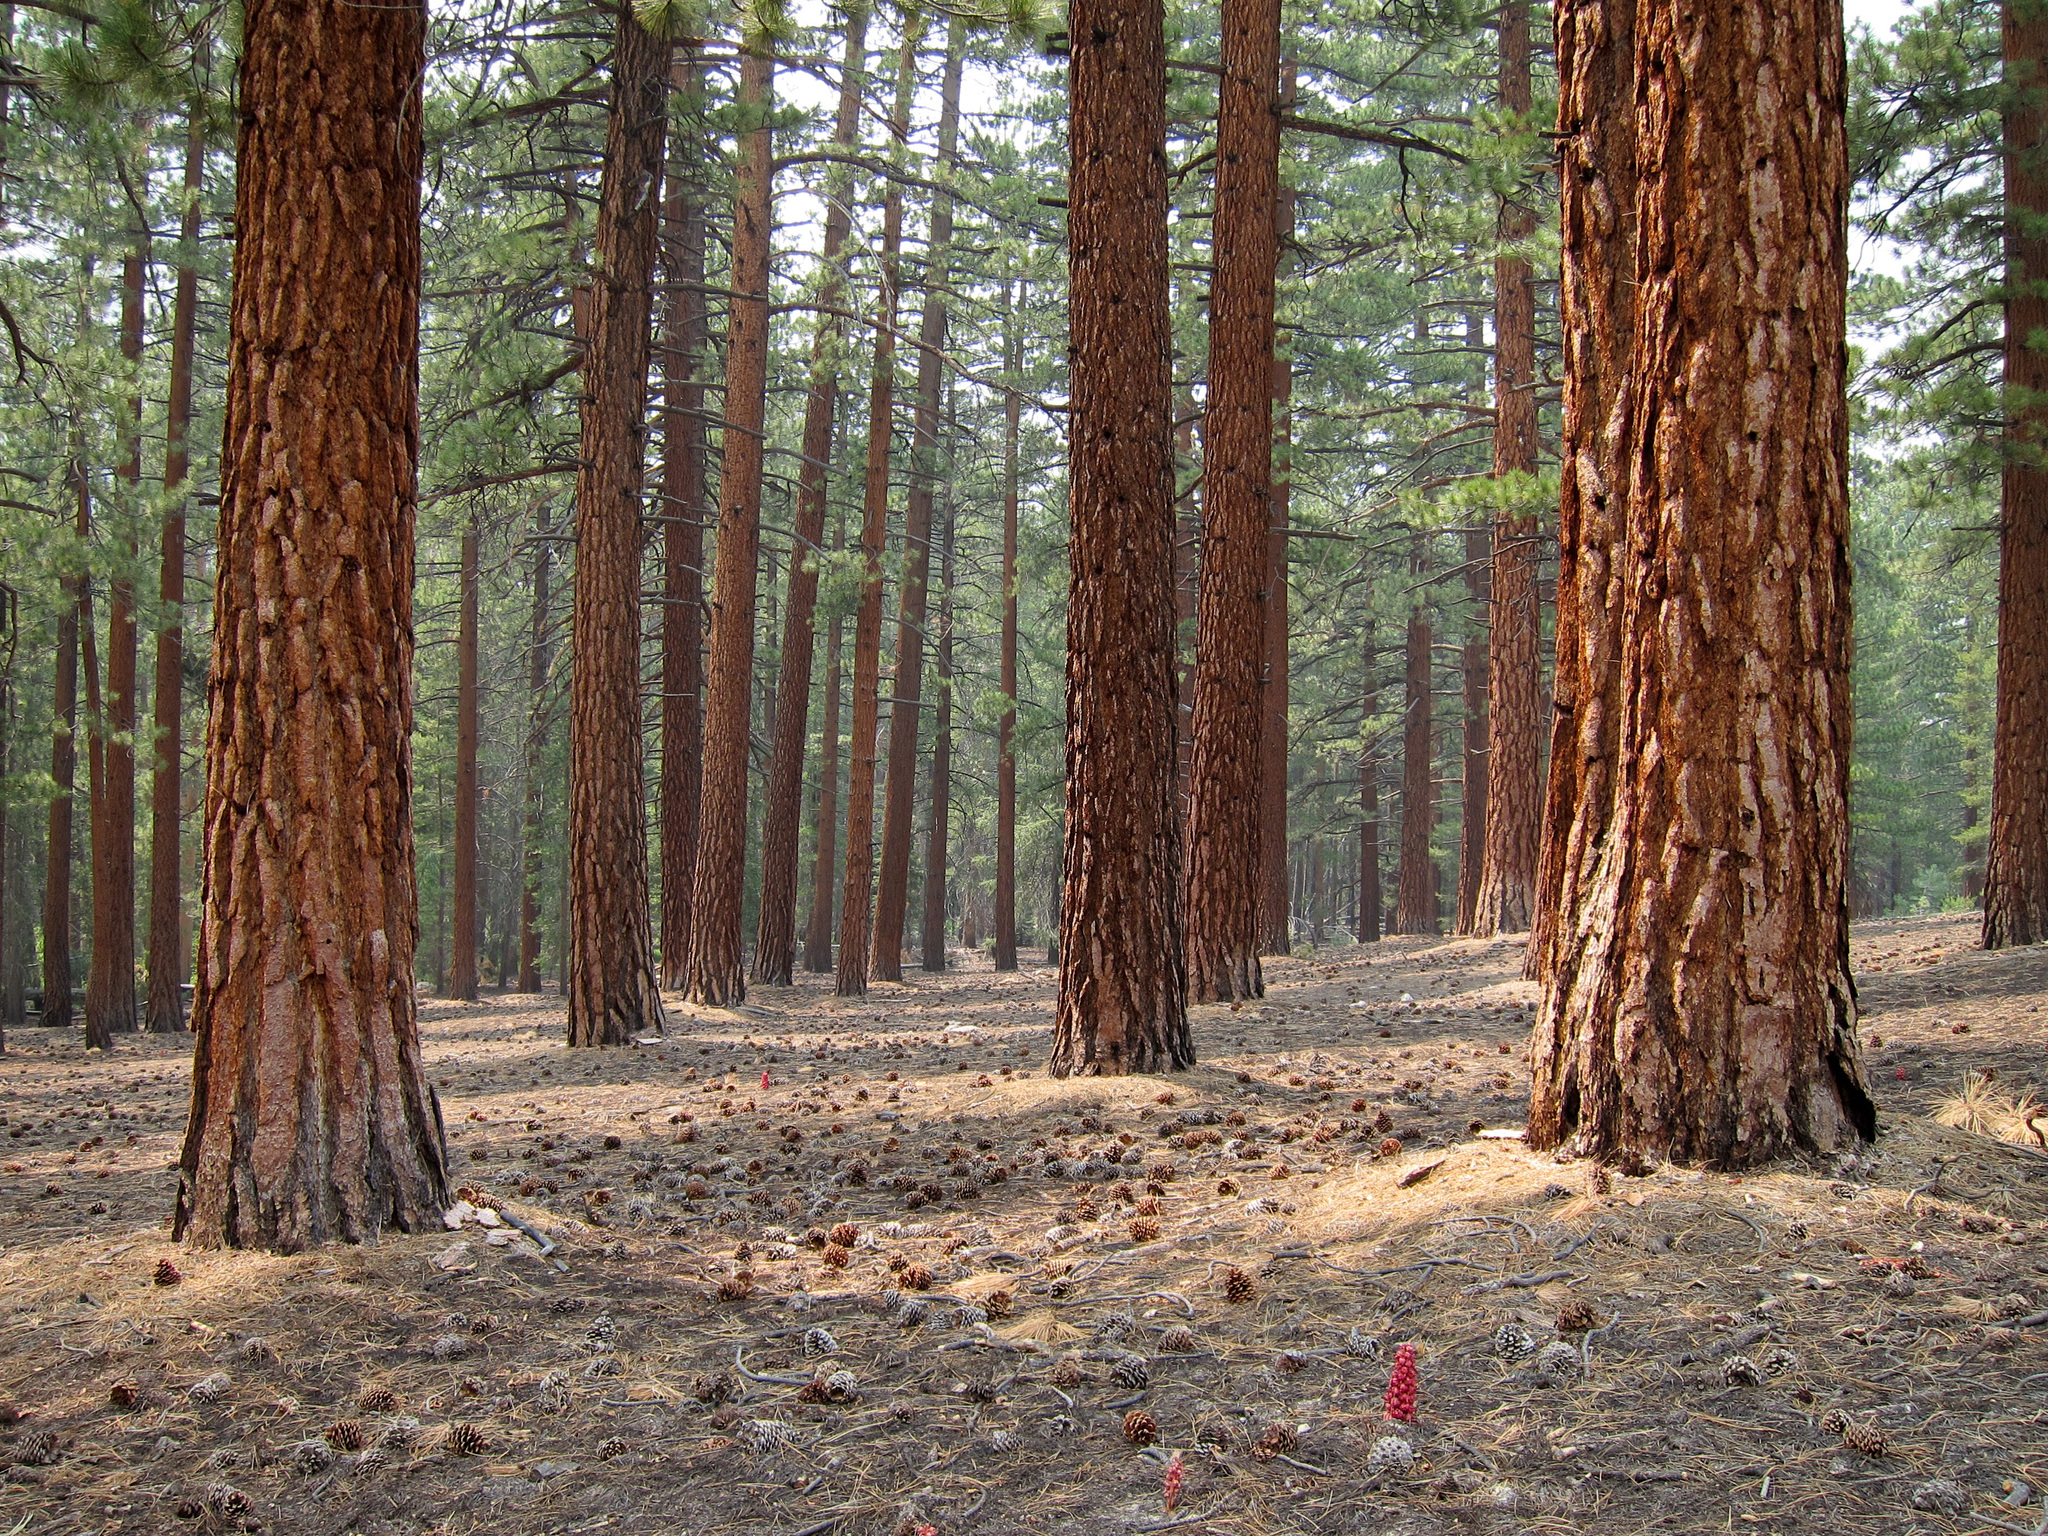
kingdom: Plantae
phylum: Tracheophyta
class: Pinopsida
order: Pinales
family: Pinaceae
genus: Pinus
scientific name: Pinus jeffreyi
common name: Jeffrey pine
